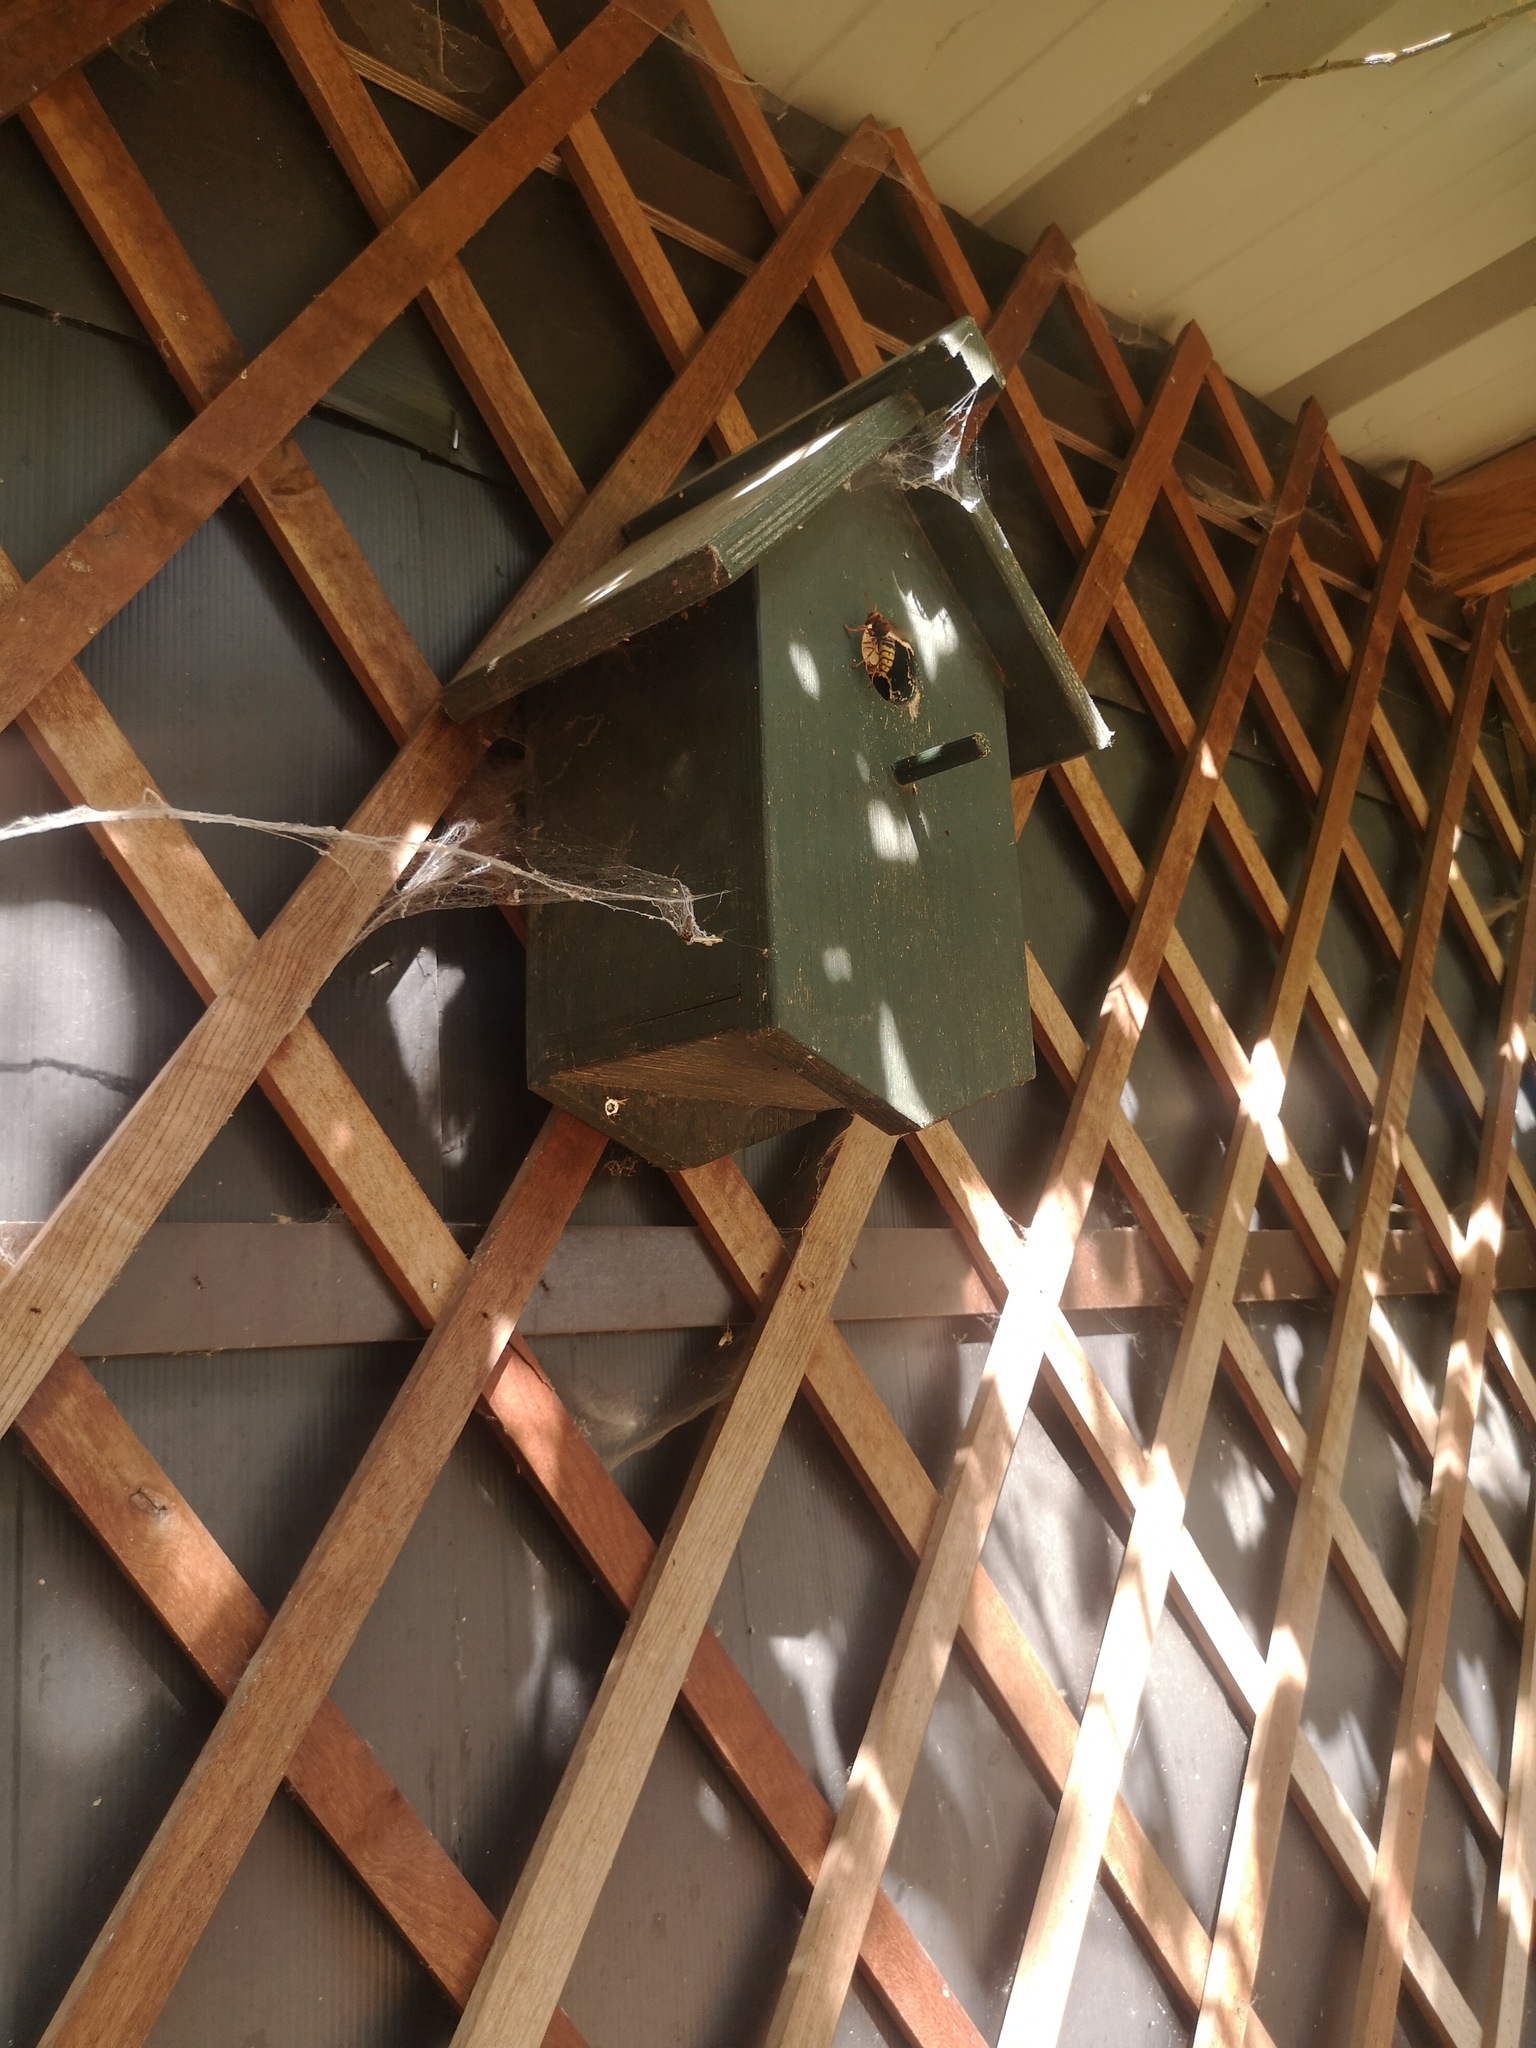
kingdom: Animalia
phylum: Arthropoda
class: Insecta
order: Hymenoptera
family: Vespidae
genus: Vespa
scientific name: Vespa crabro
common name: Hornet
